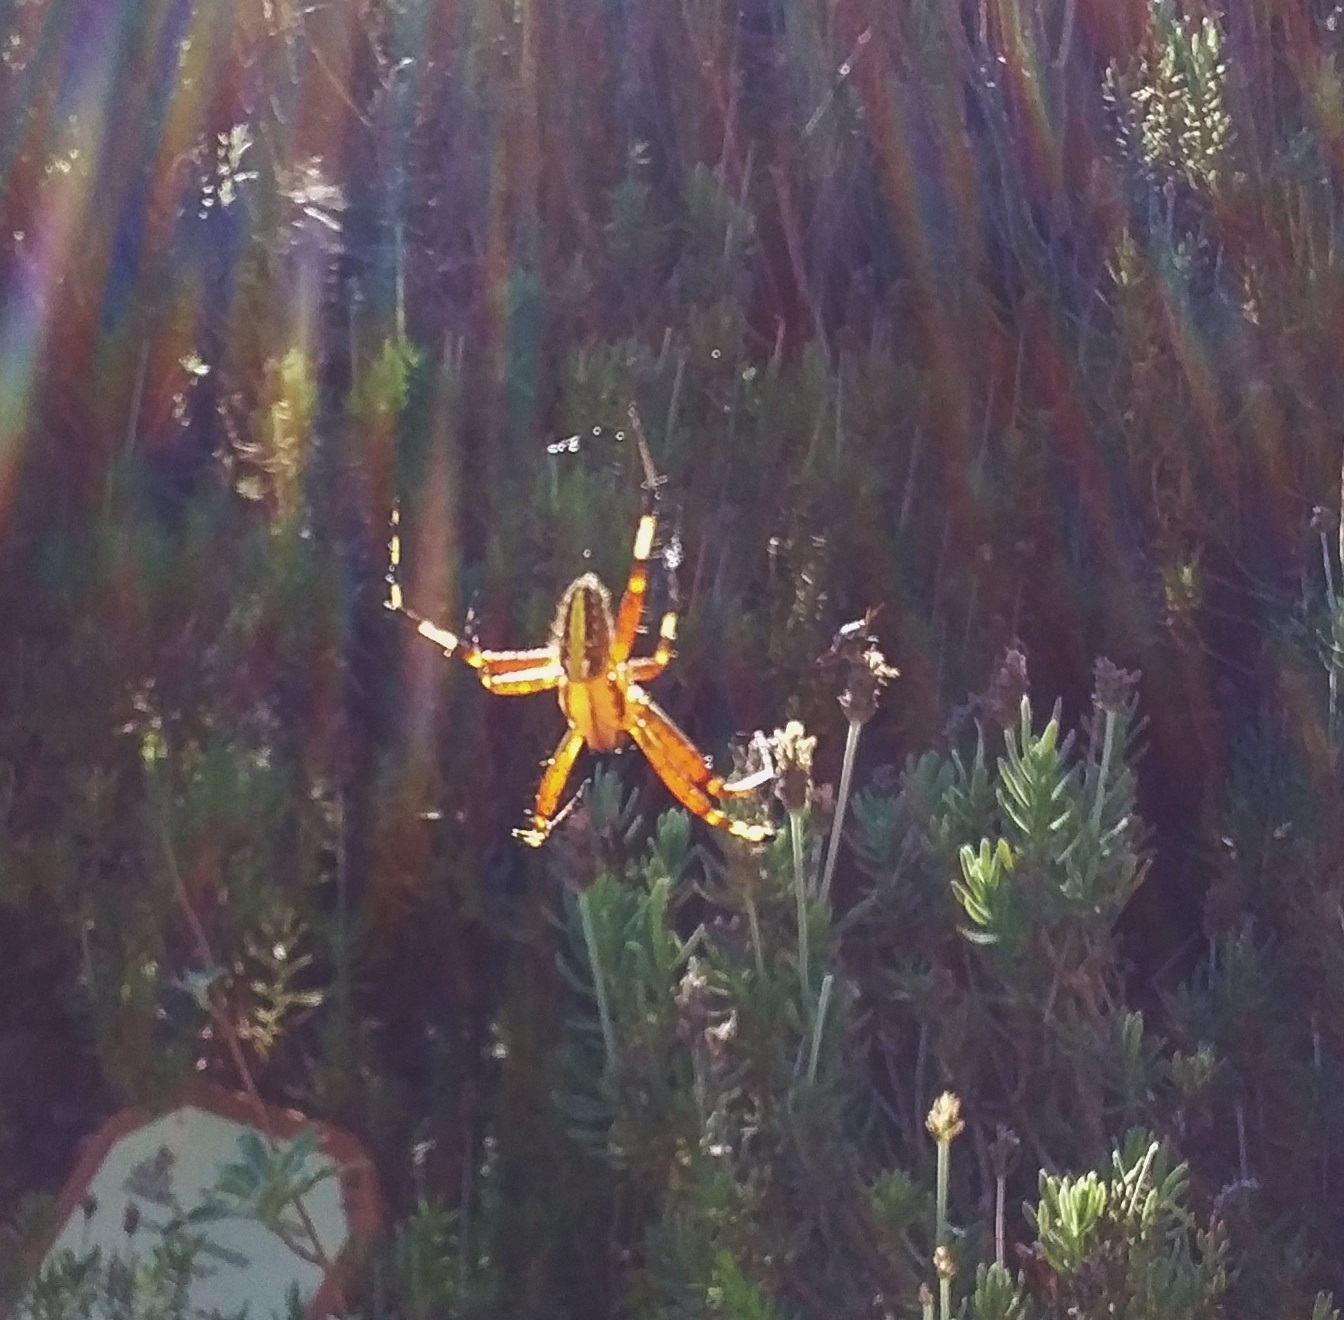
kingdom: Animalia
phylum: Arthropoda
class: Arachnida
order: Araneae
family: Araneidae
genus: Neoscona
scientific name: Neoscona oaxacensis
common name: Orb weavers
